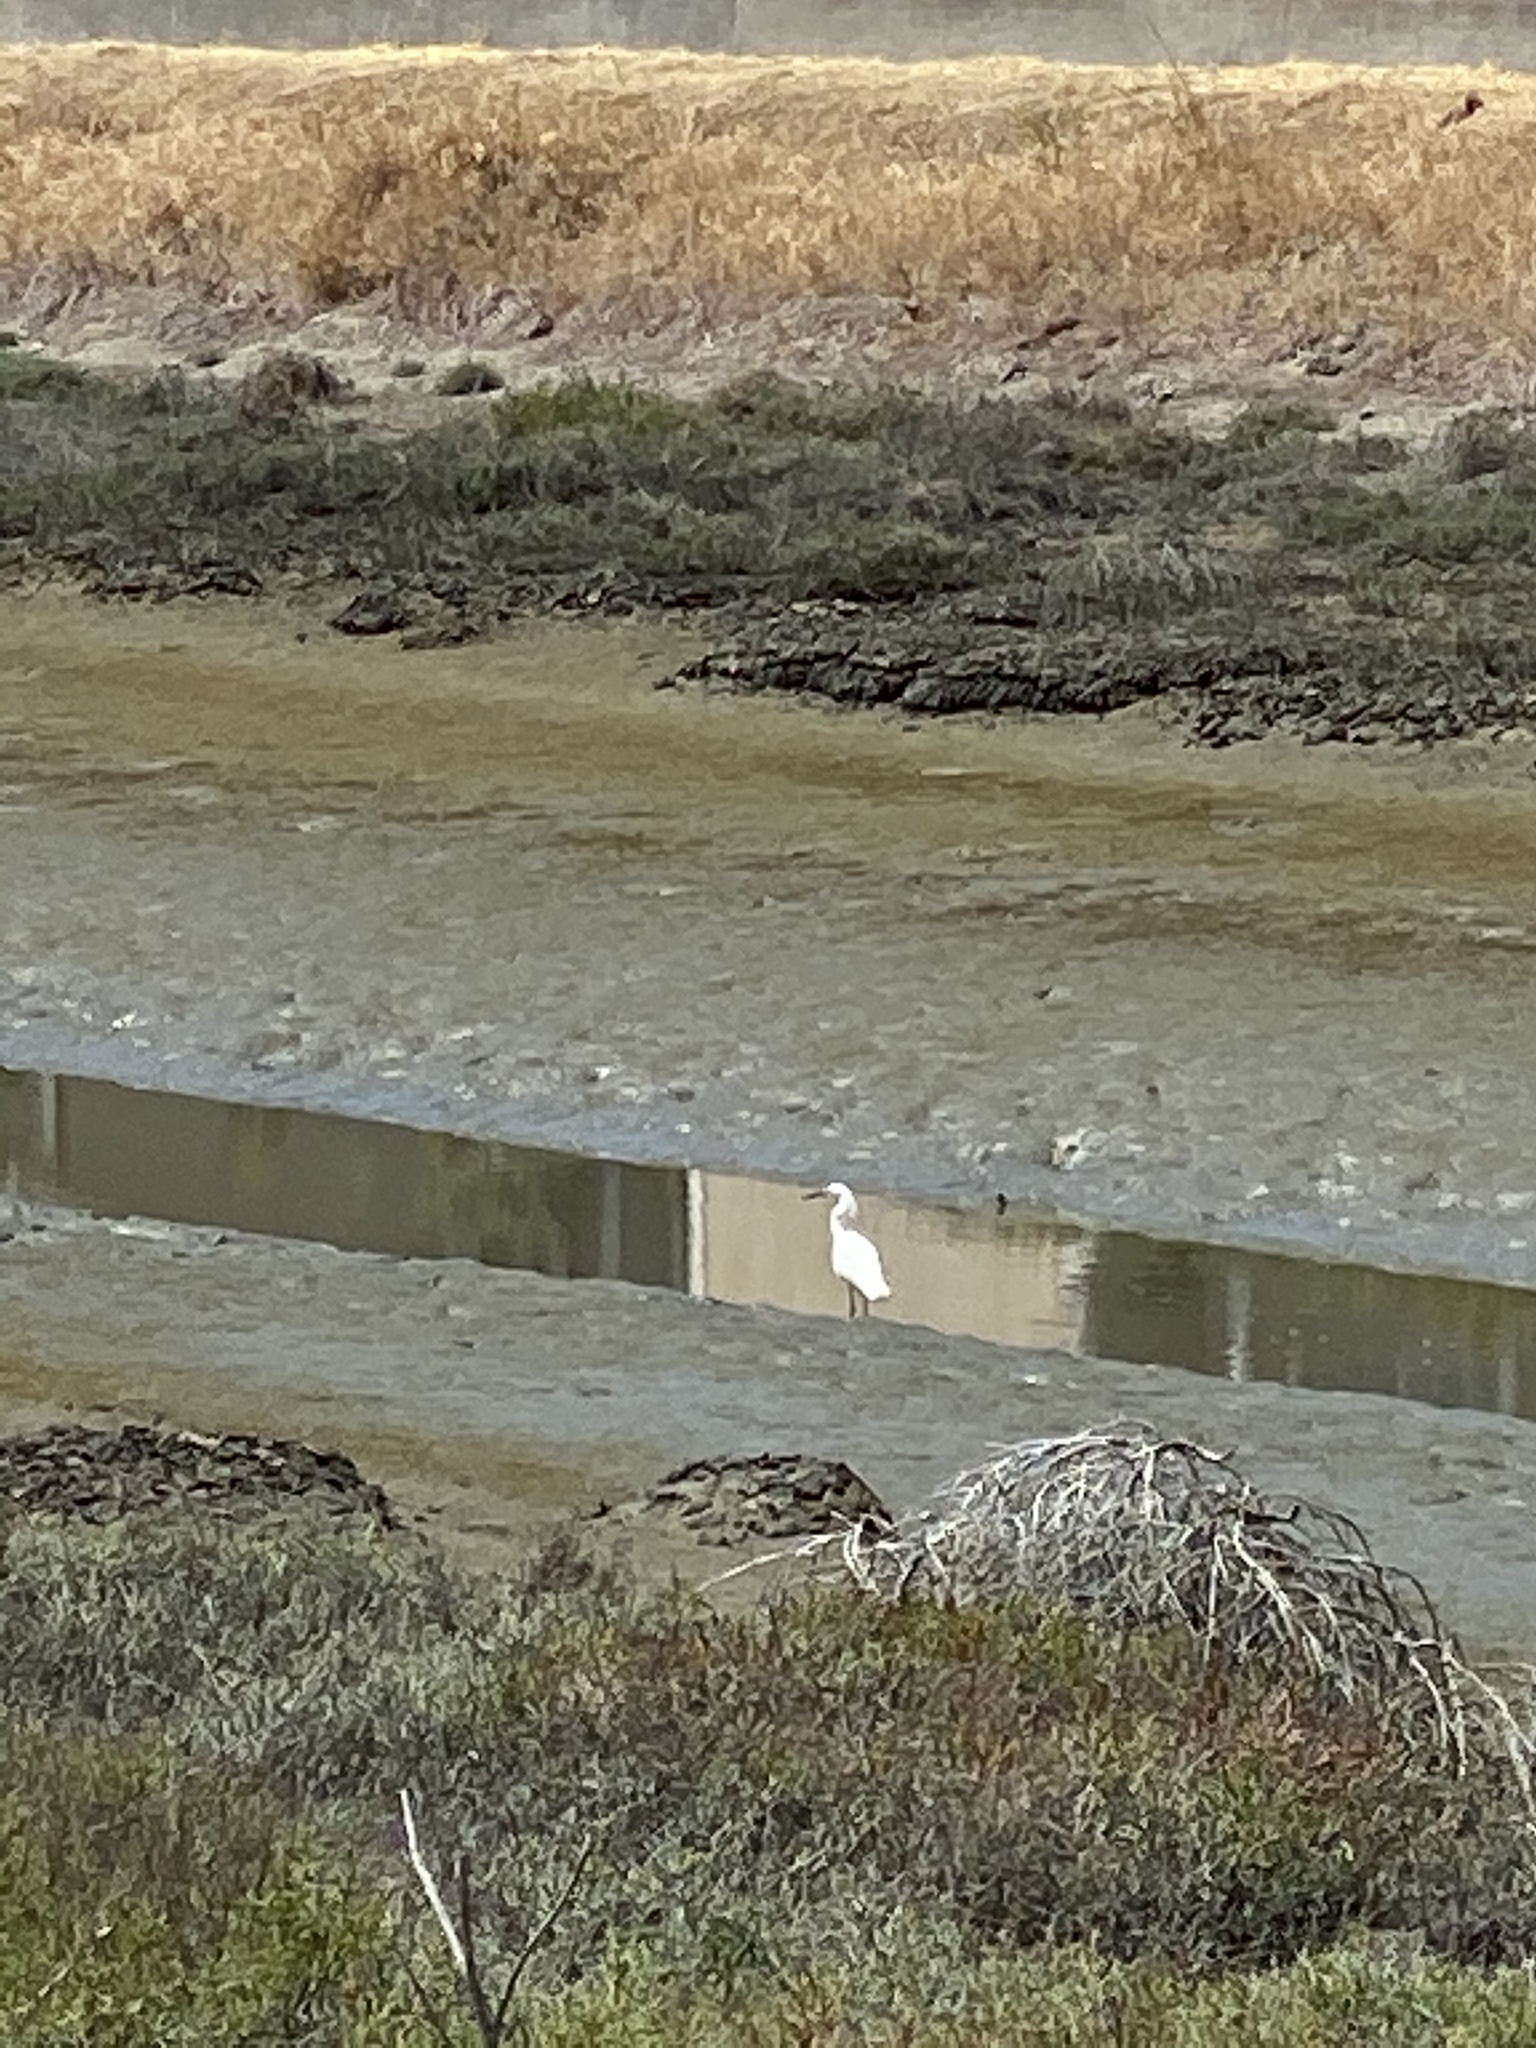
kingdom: Animalia
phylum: Chordata
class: Aves
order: Pelecaniformes
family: Ardeidae
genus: Egretta
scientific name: Egretta thula
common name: Snowy egret
